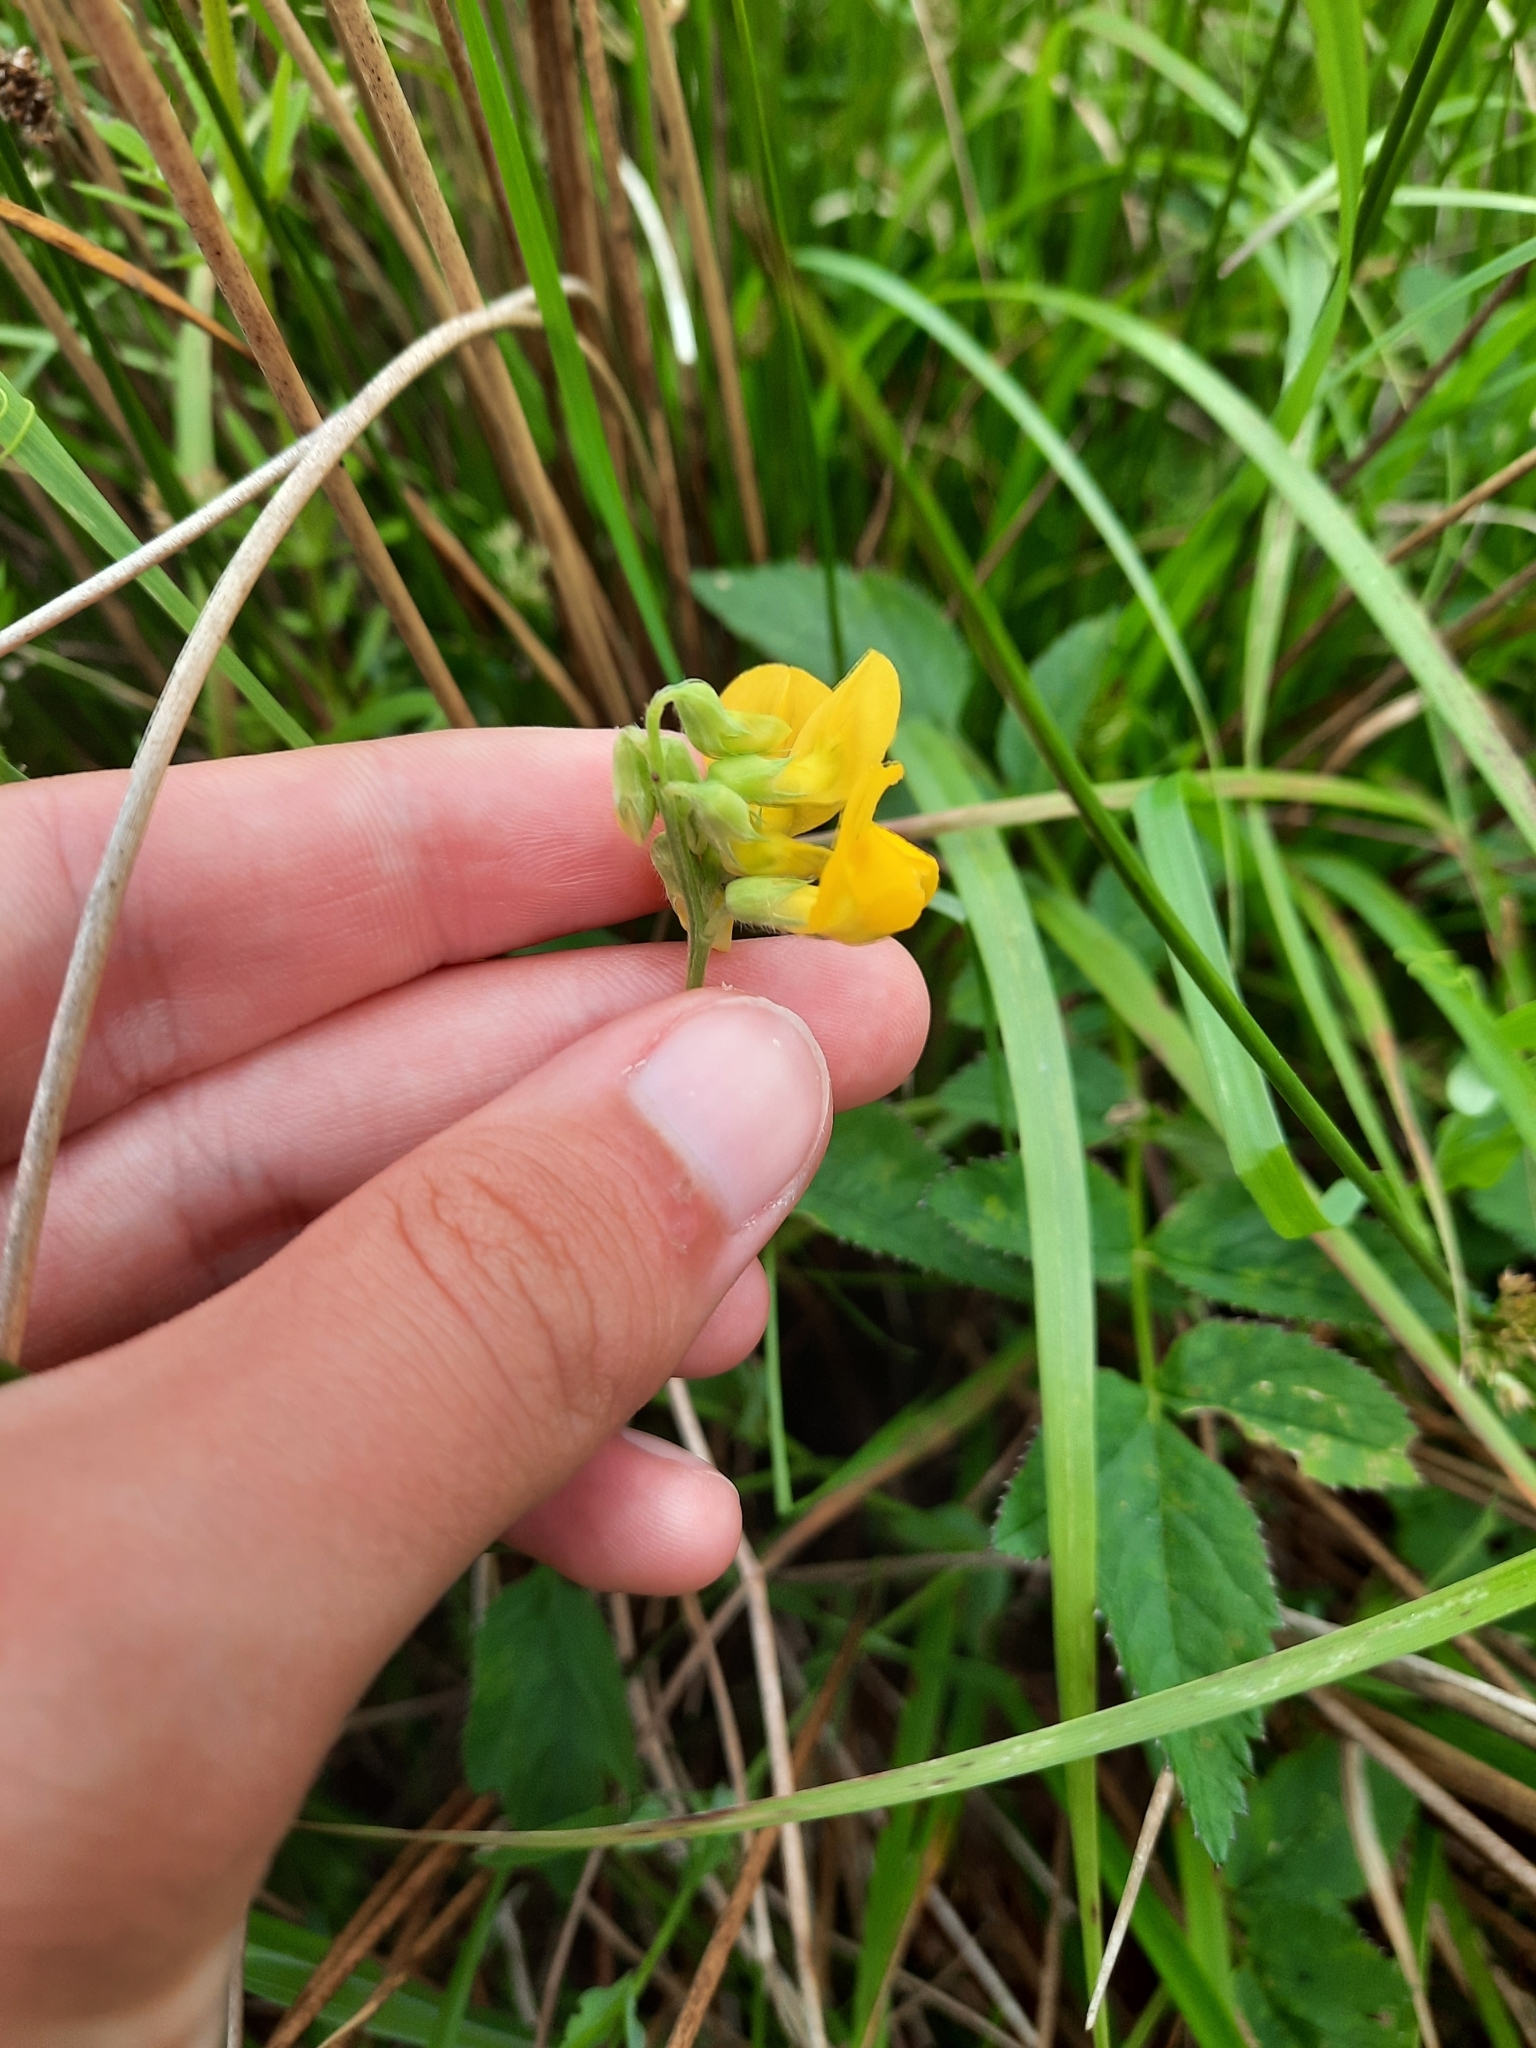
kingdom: Plantae
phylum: Tracheophyta
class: Magnoliopsida
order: Fabales
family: Fabaceae
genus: Lathyrus
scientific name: Lathyrus pratensis
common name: Meadow vetchling
